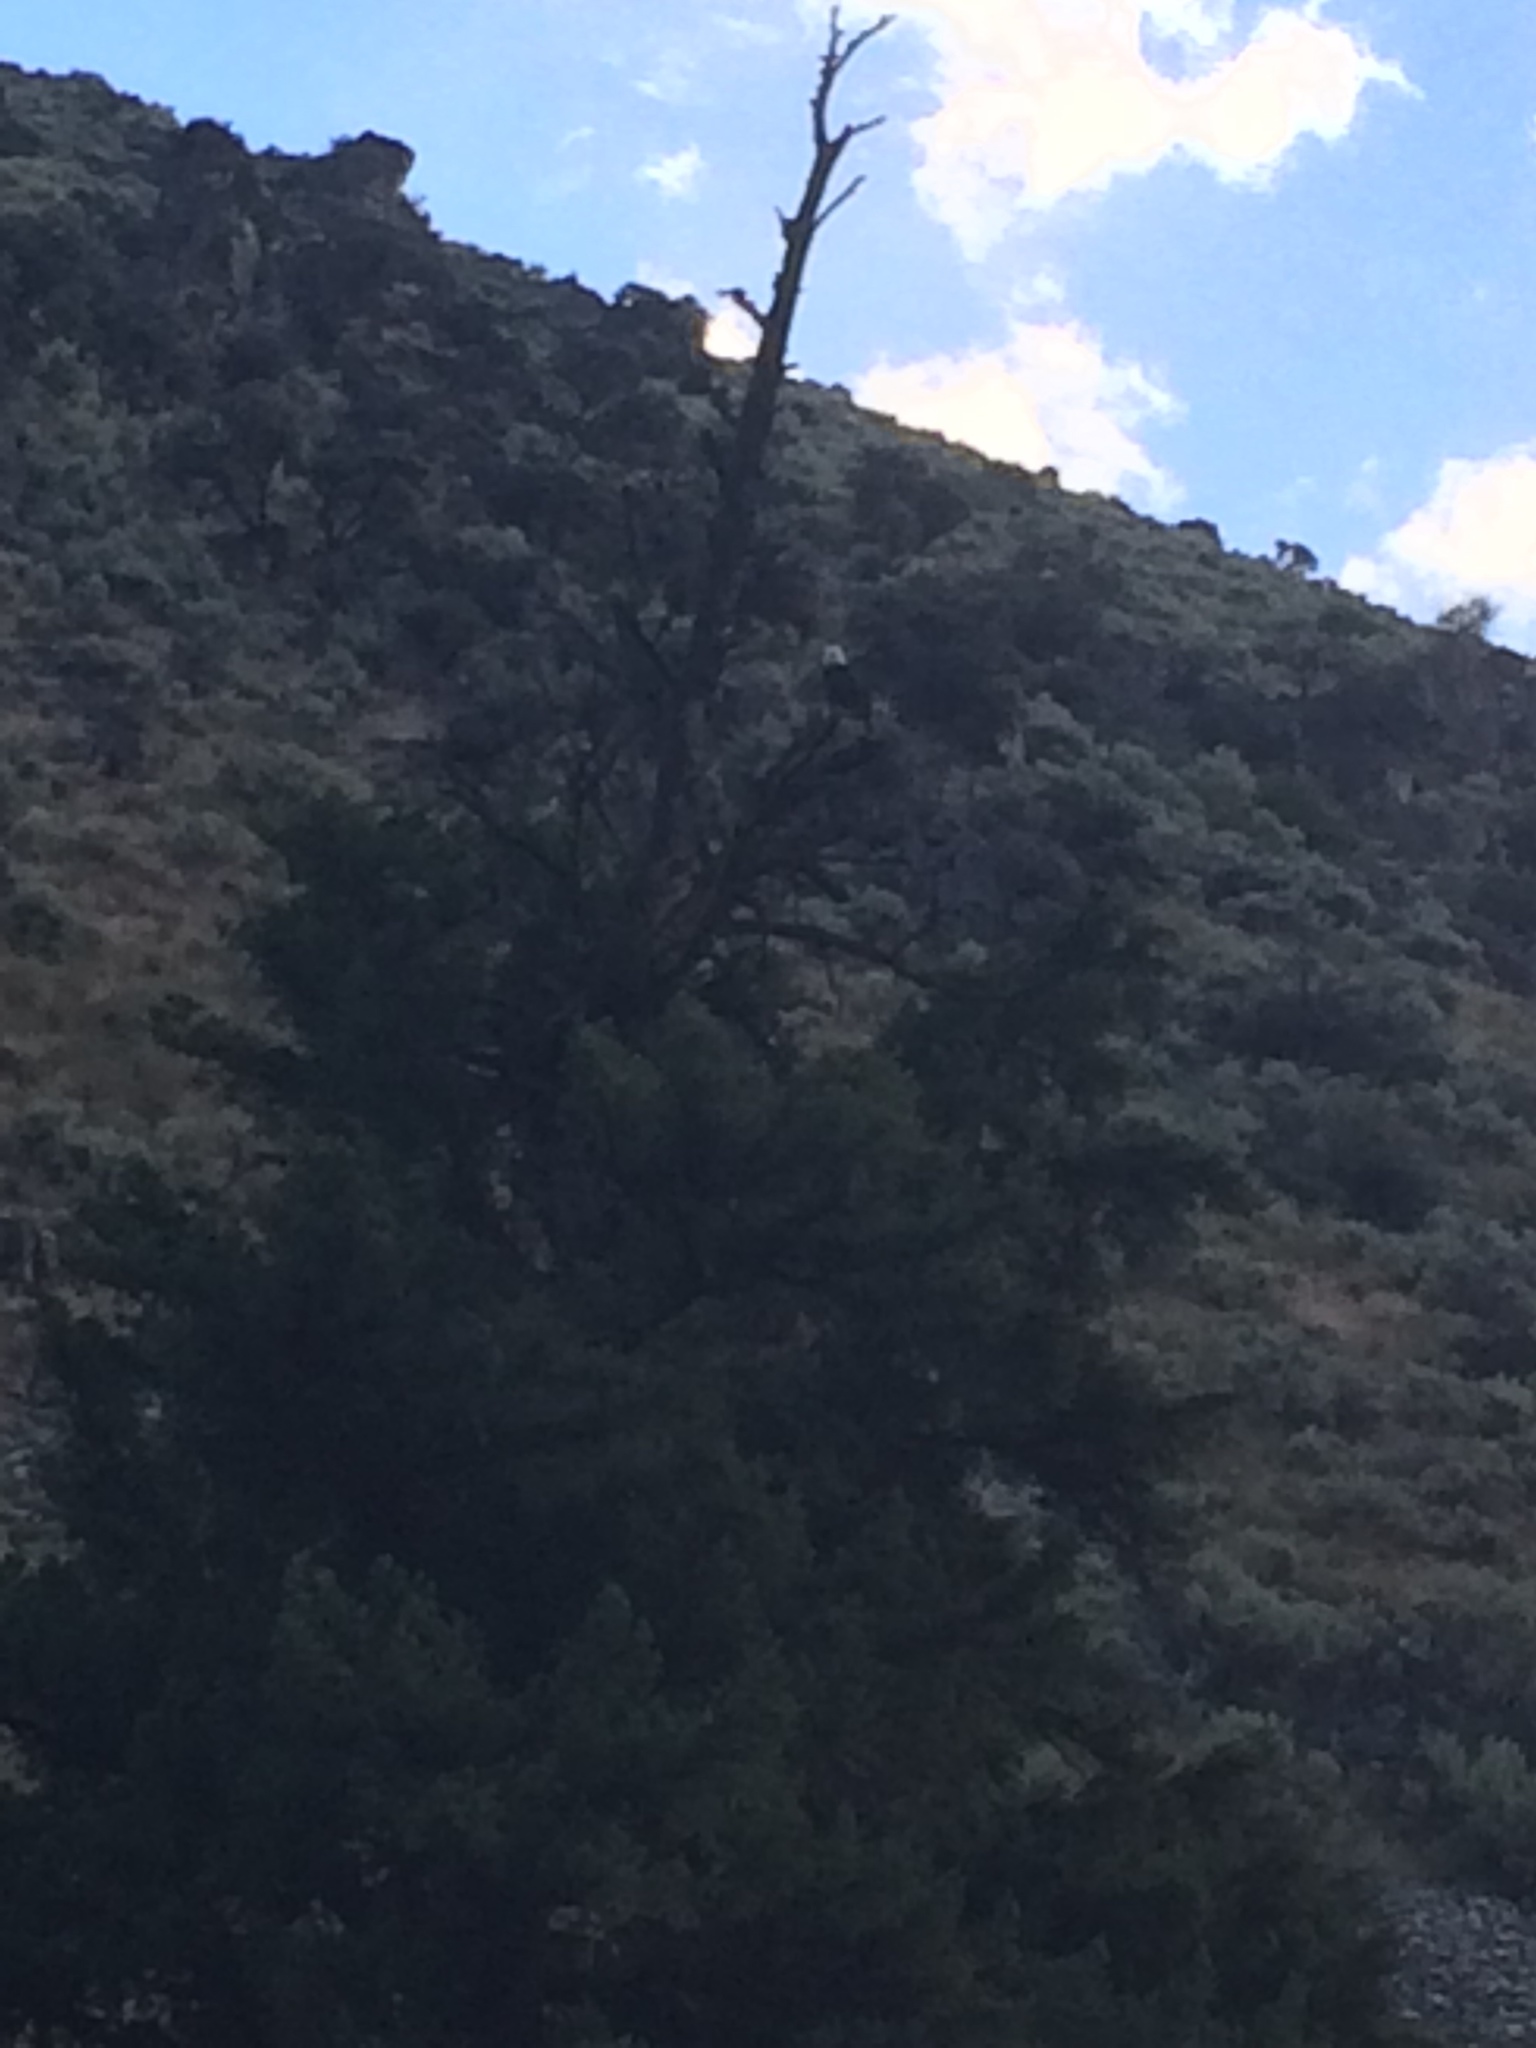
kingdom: Animalia
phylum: Chordata
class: Aves
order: Accipitriformes
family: Accipitridae
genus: Haliaeetus
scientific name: Haliaeetus leucocephalus
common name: Bald eagle
